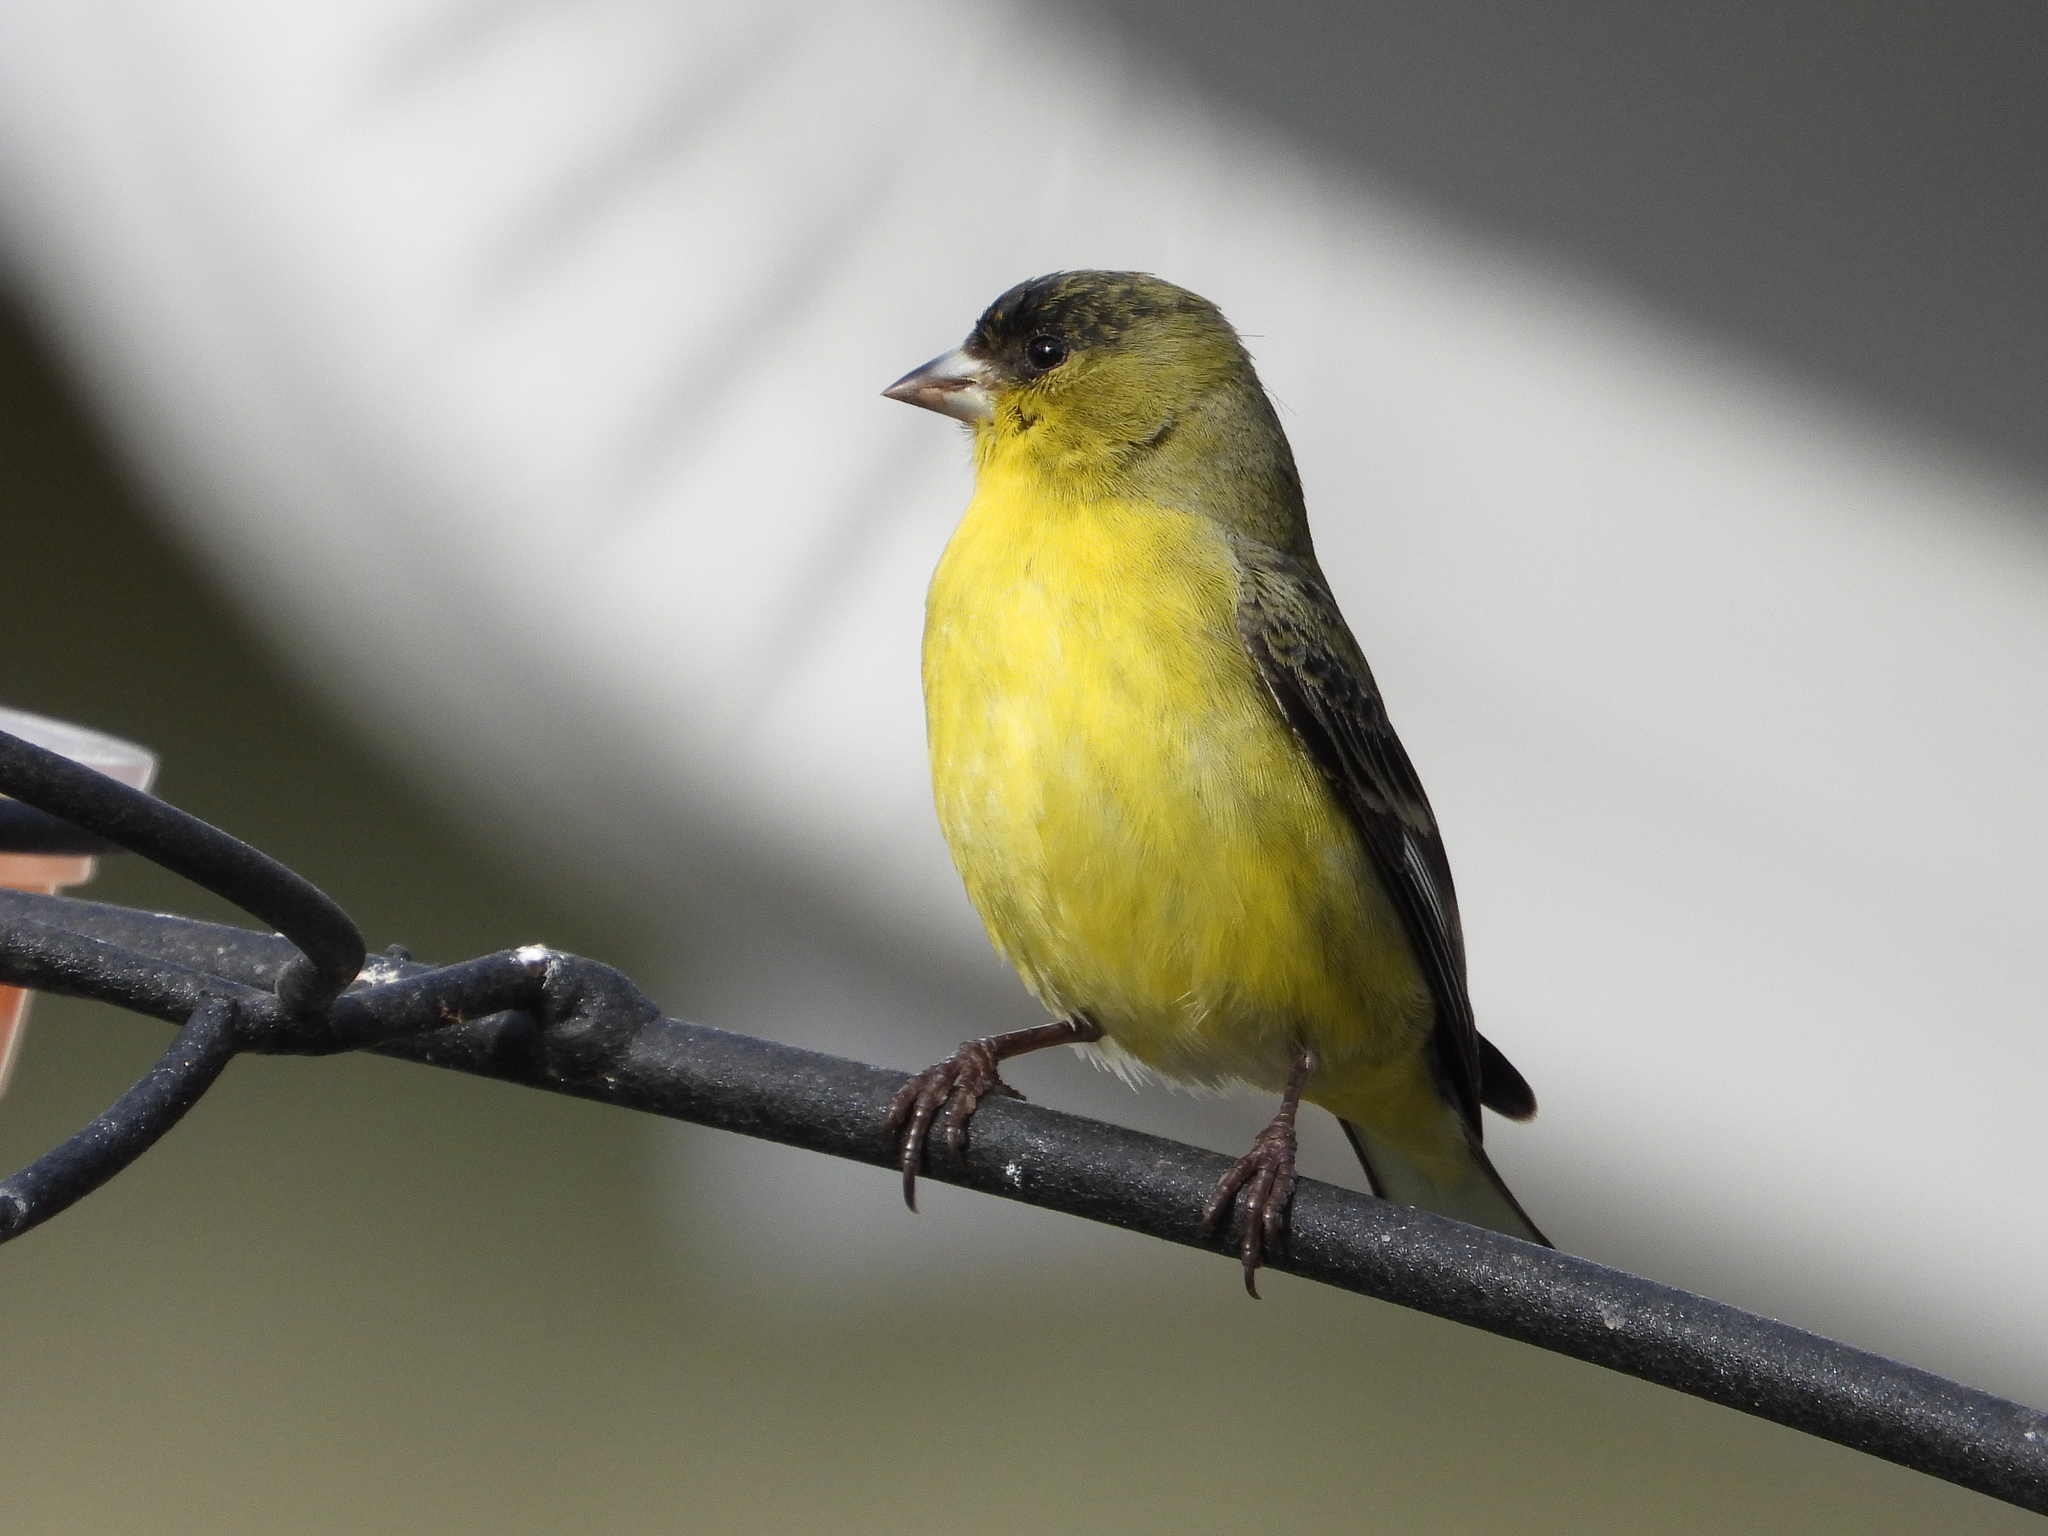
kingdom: Animalia
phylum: Chordata
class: Aves
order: Passeriformes
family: Fringillidae
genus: Spinus
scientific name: Spinus psaltria
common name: Lesser goldfinch
